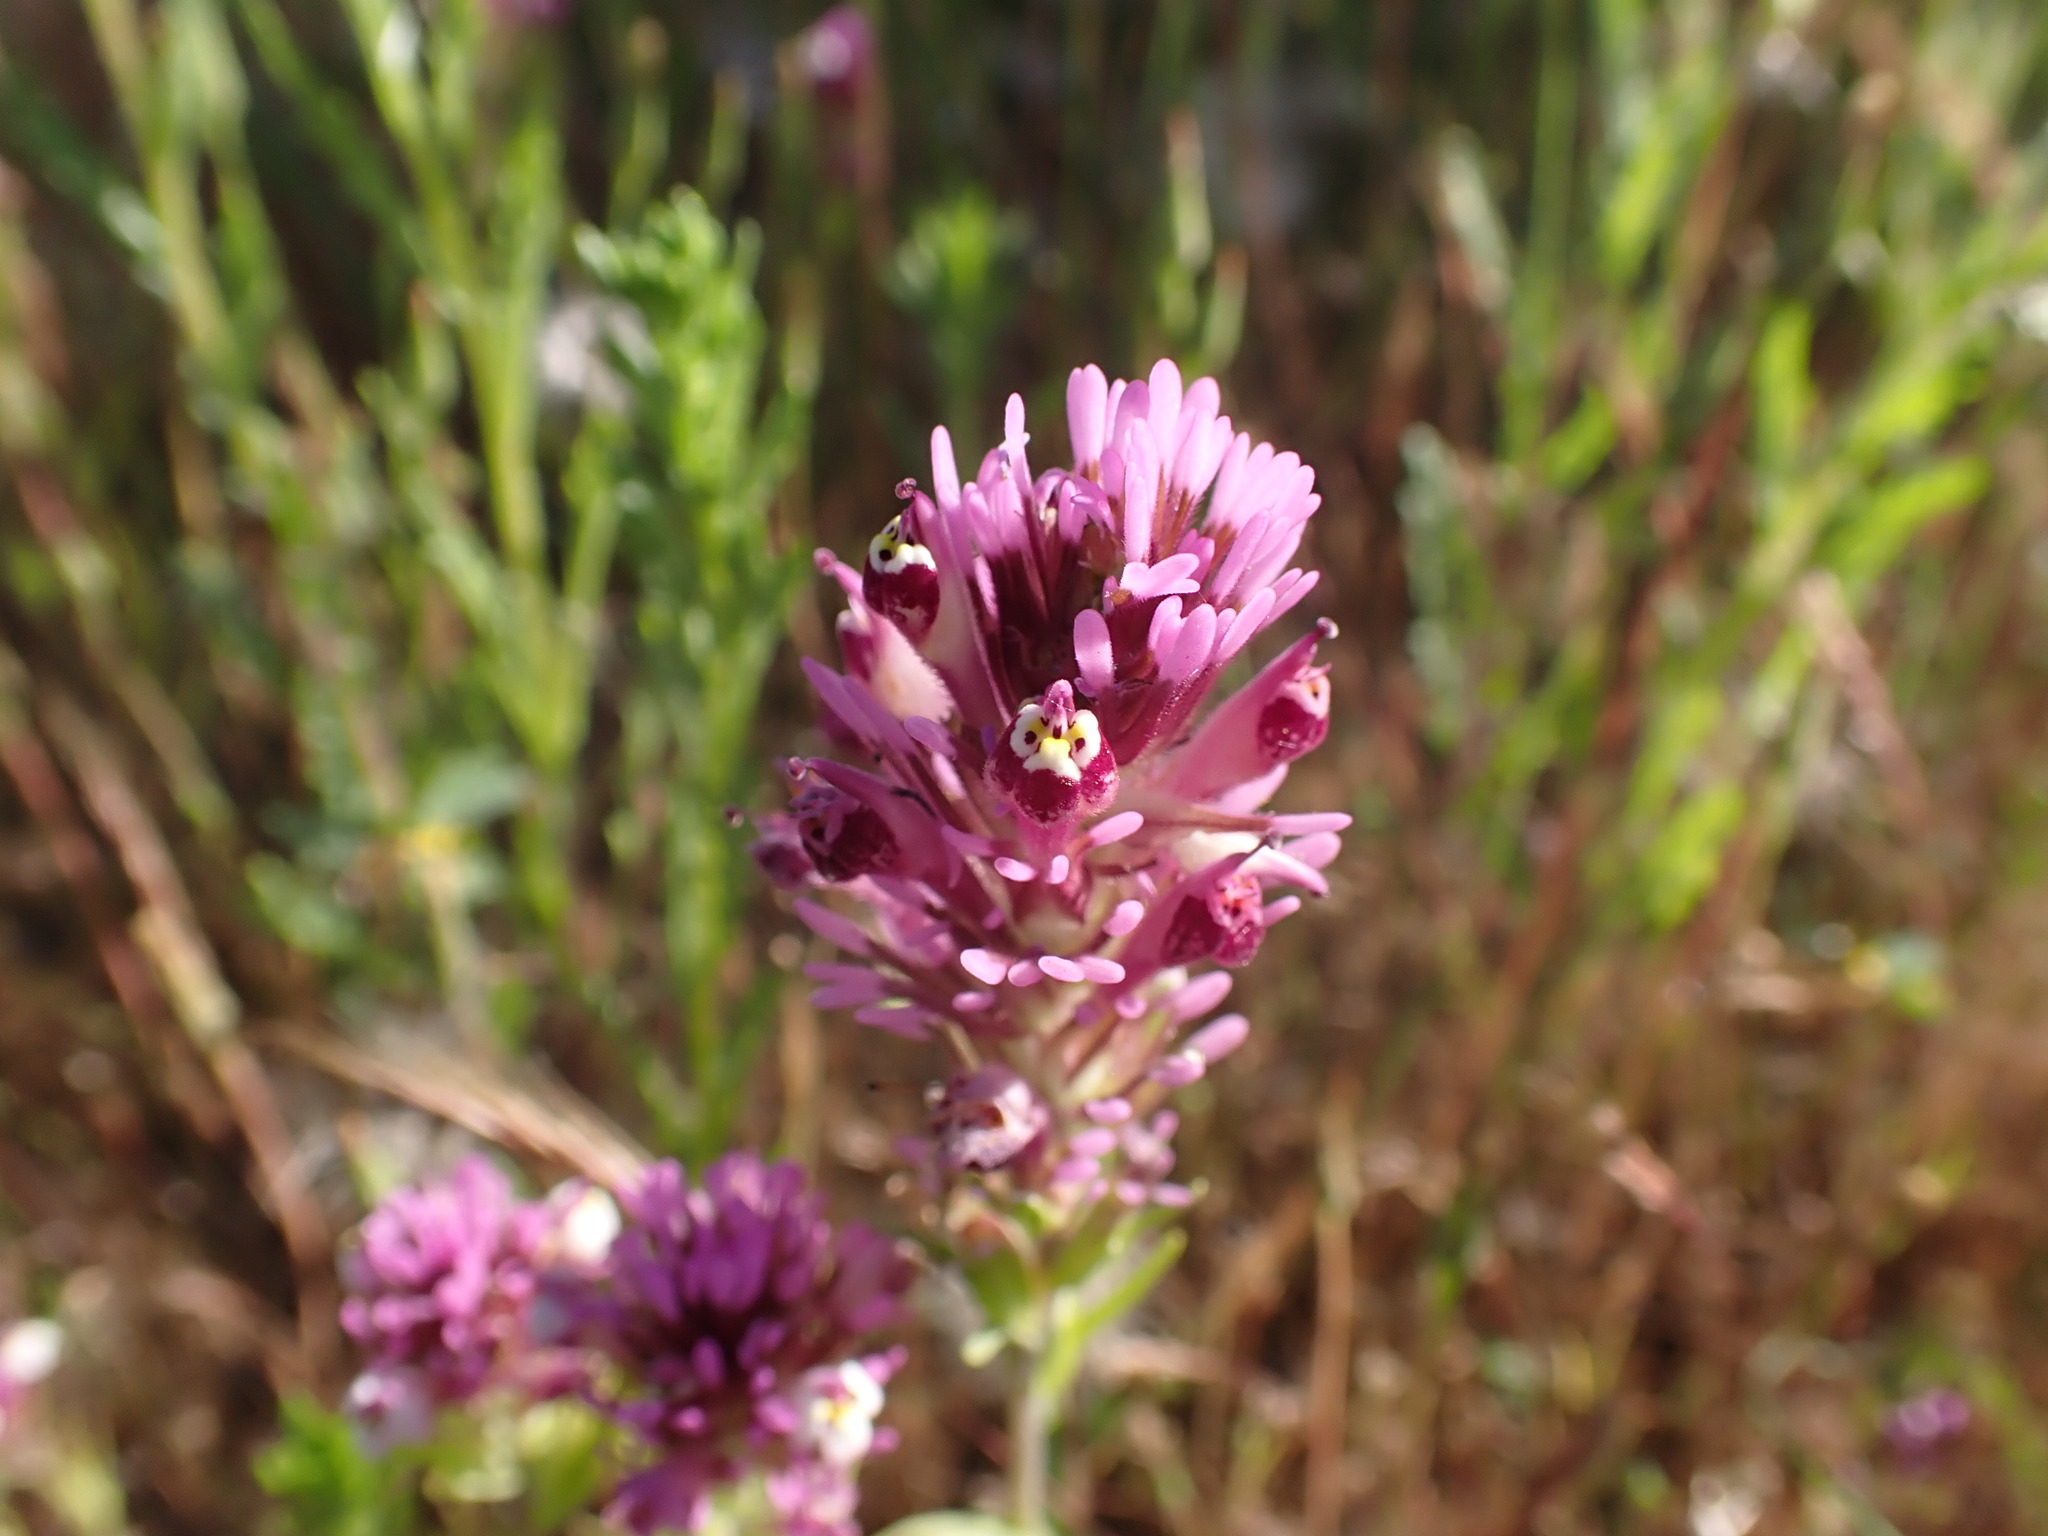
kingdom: Plantae
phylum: Tracheophyta
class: Magnoliopsida
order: Lamiales
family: Orobanchaceae
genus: Castilleja
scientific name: Castilleja densiflora
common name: Dense-flower indian paintbrush
